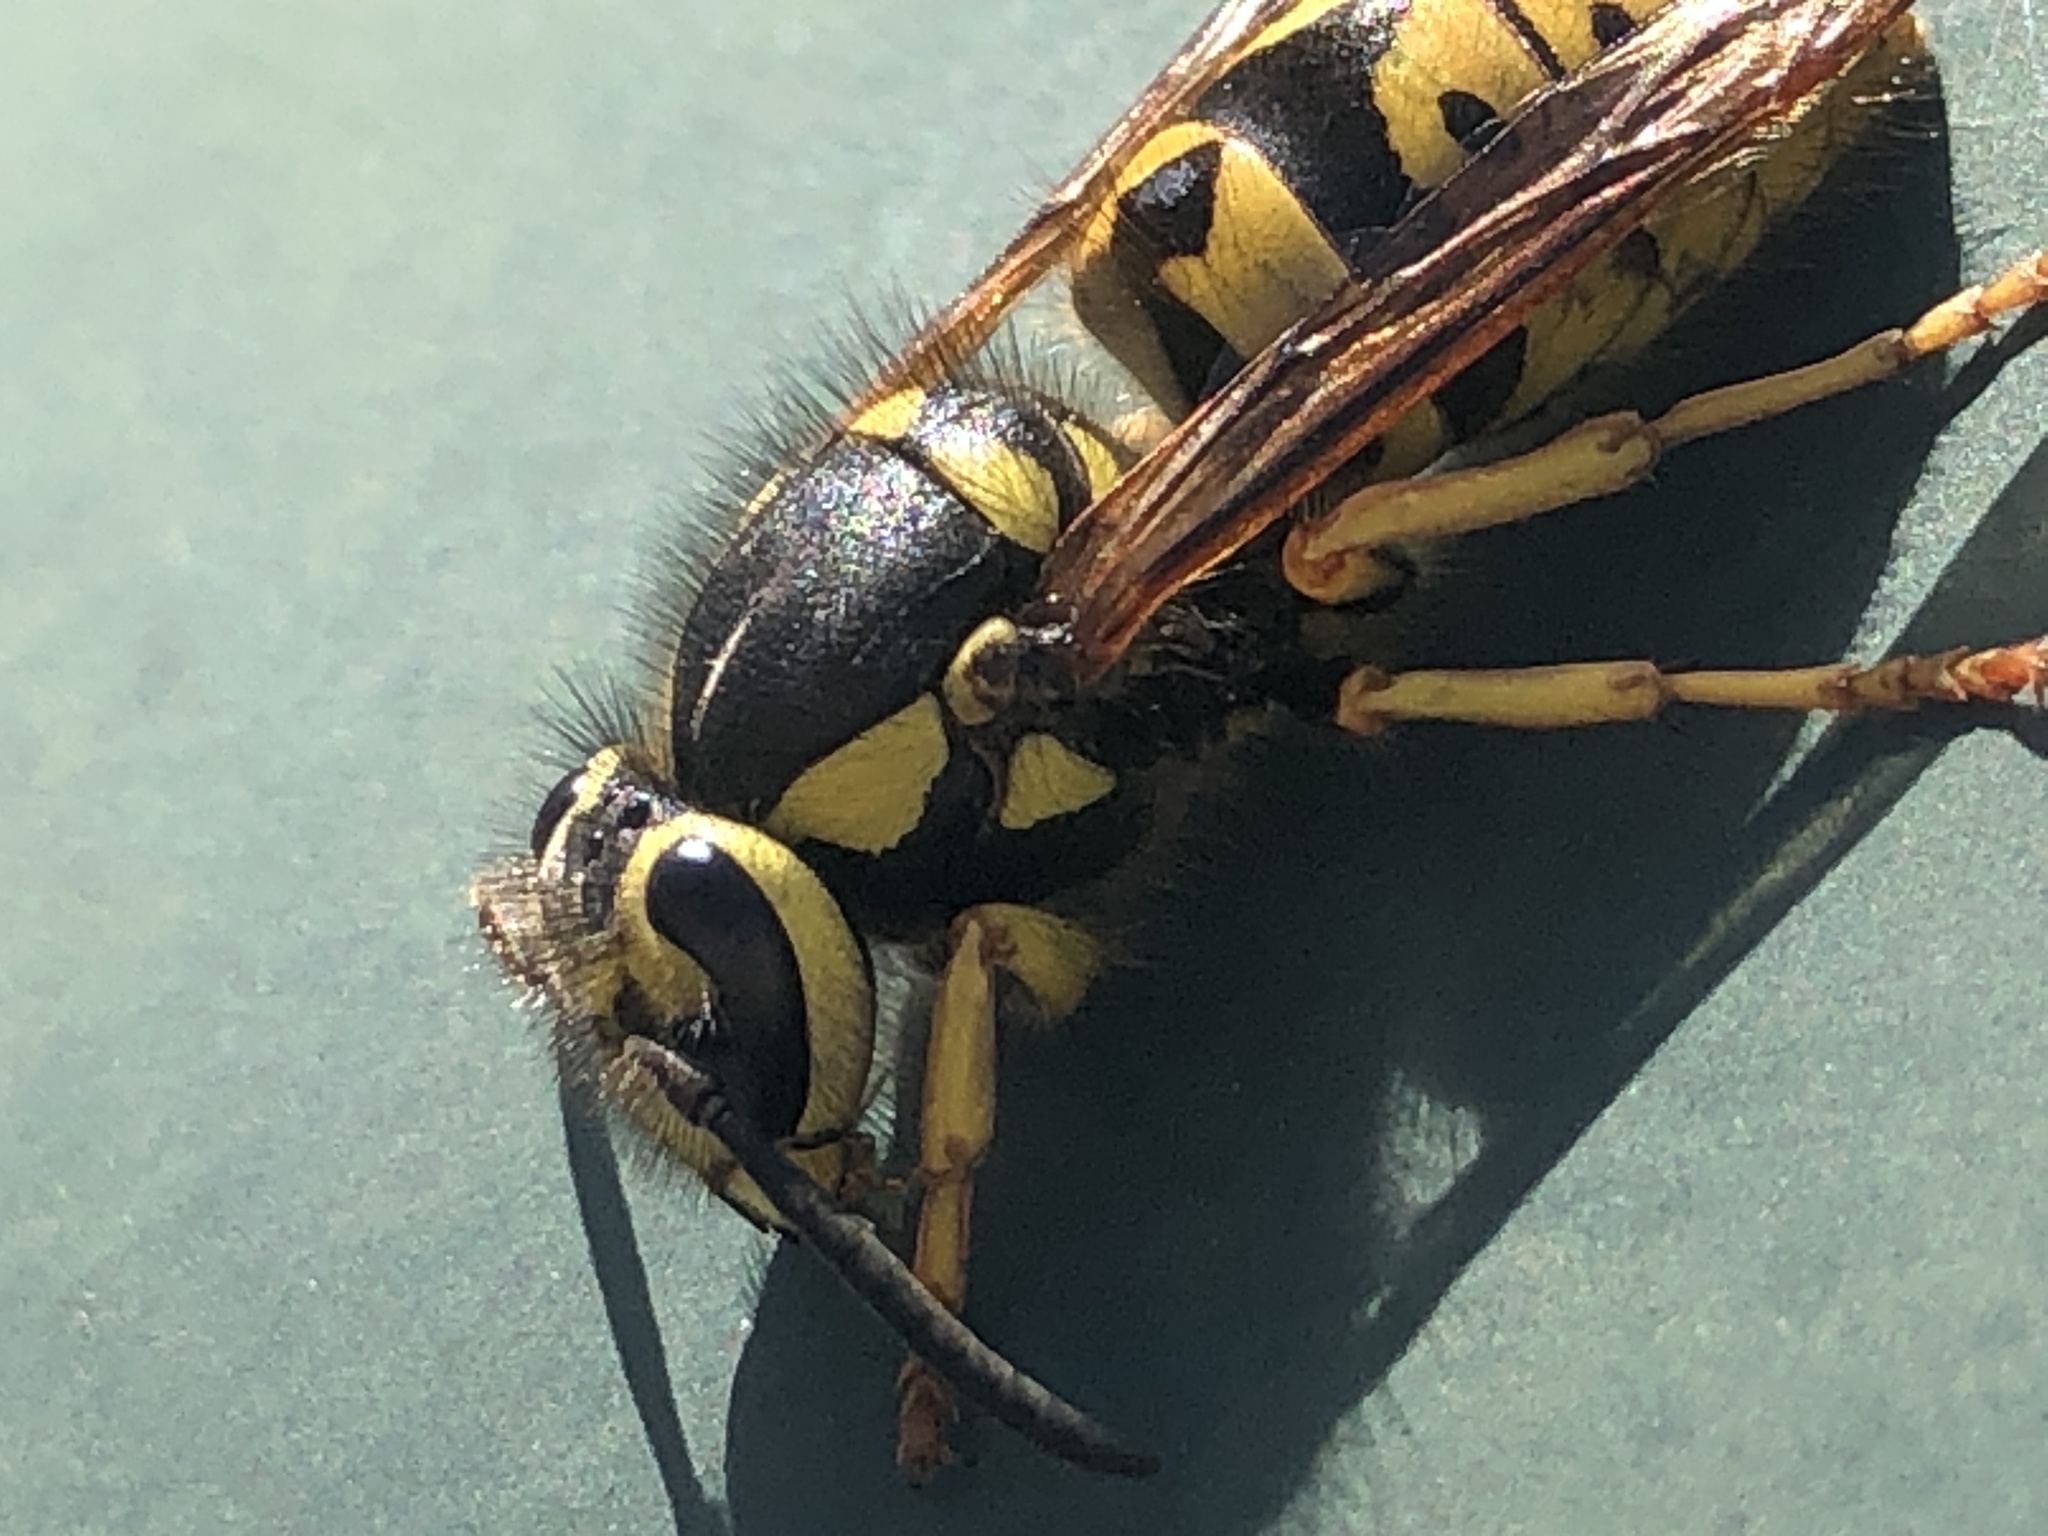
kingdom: Animalia
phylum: Arthropoda
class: Insecta
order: Hymenoptera
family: Vespidae
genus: Vespula
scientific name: Vespula pensylvanica
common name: Western yellowjacket
